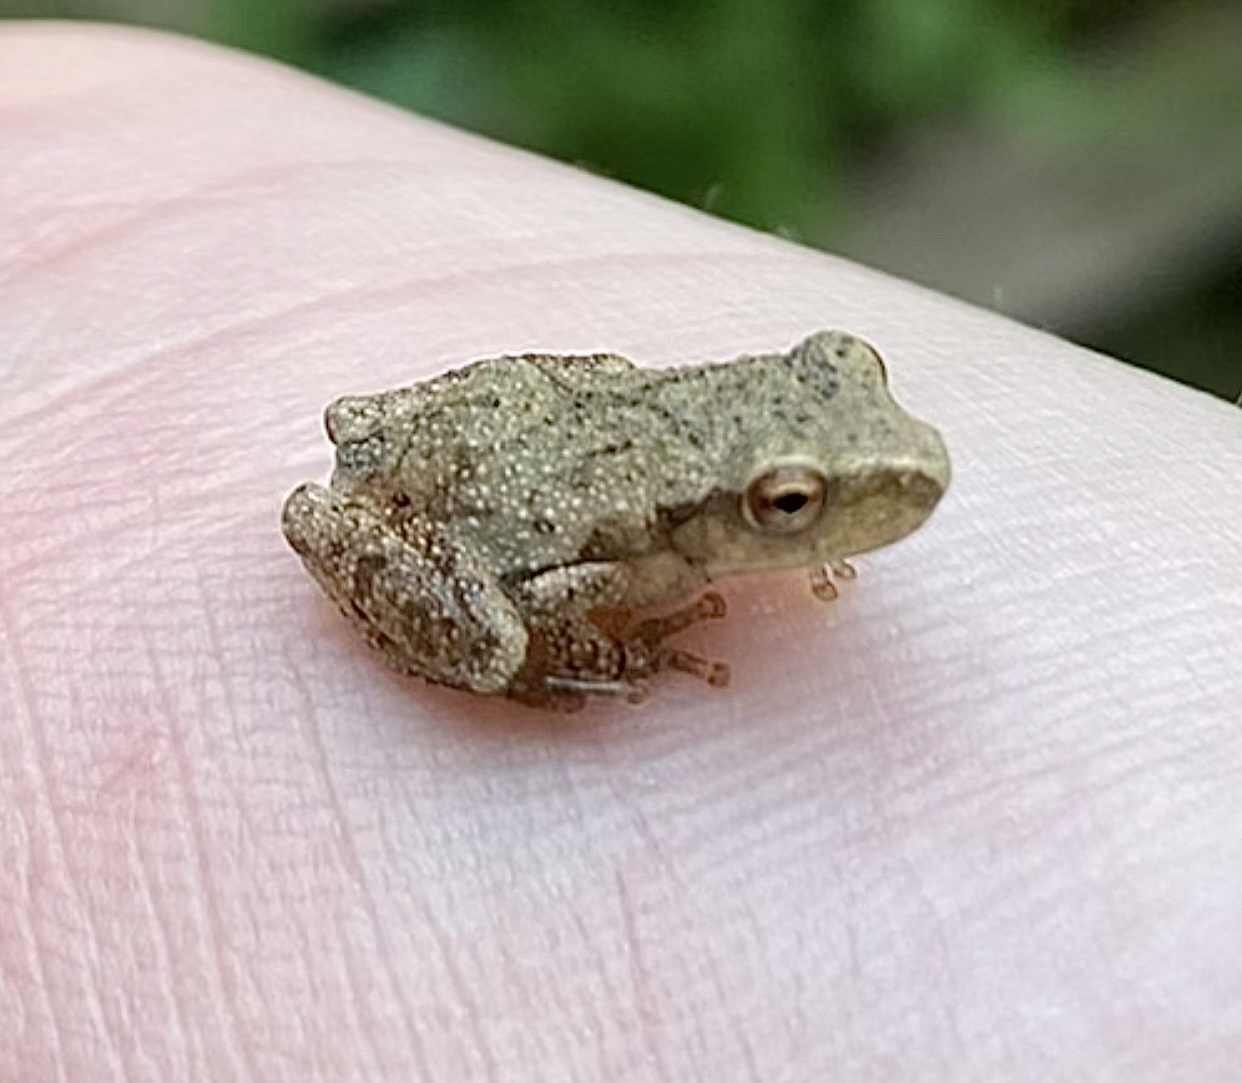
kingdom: Animalia
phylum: Chordata
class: Amphibia
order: Anura
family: Hylidae
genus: Pseudacris
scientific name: Pseudacris crucifer
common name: Spring peeper
